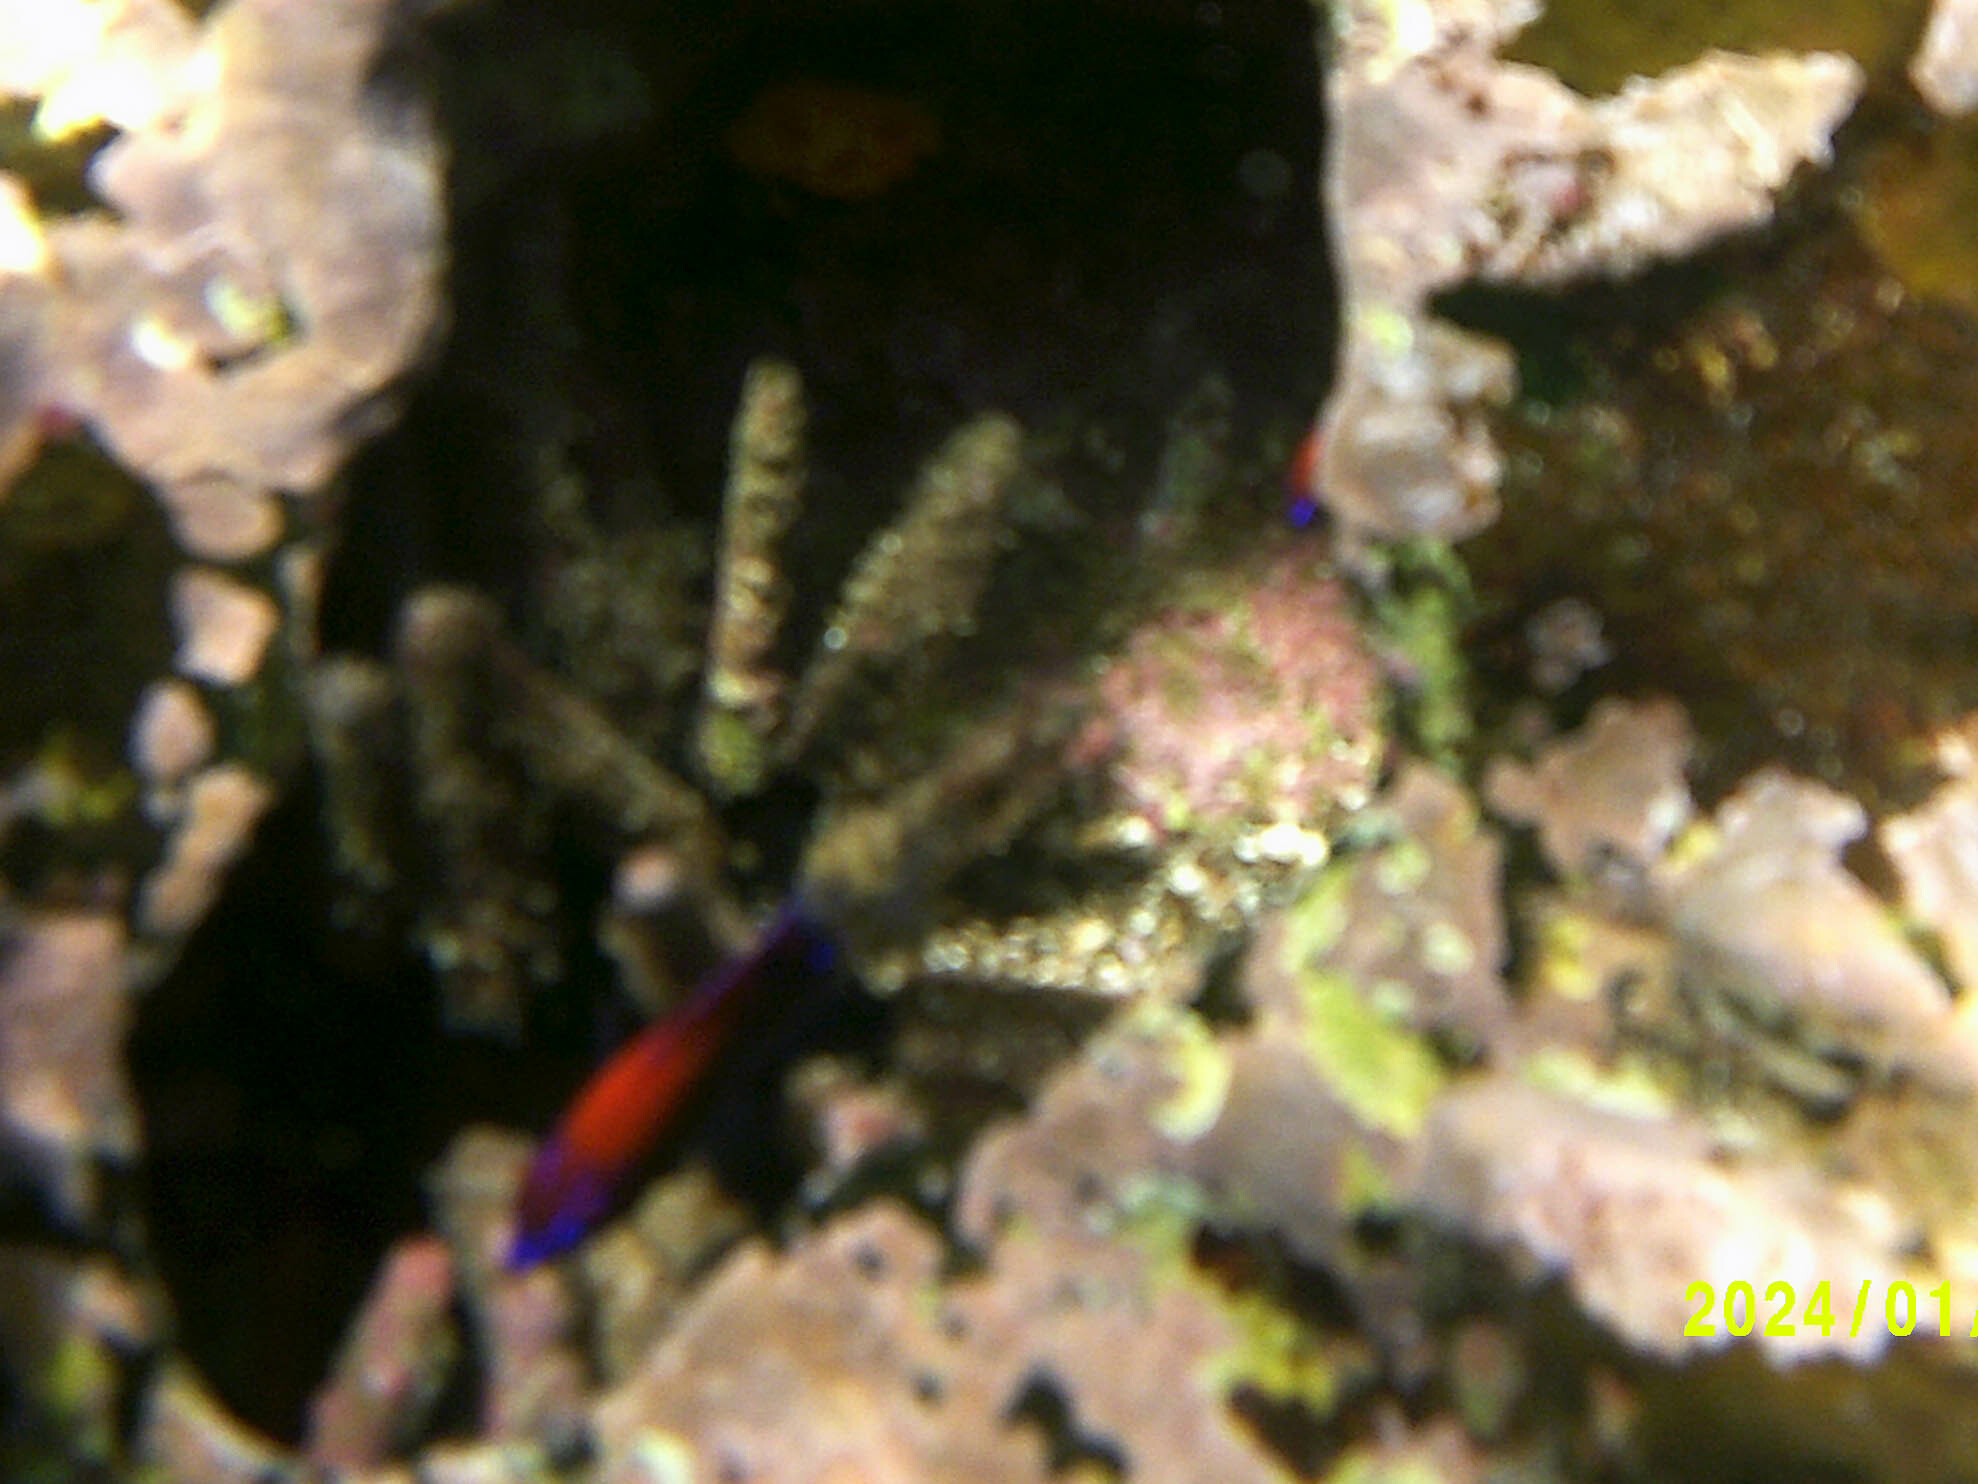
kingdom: Animalia
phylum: Chordata
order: Perciformes
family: Pomacentridae
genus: Stegastes
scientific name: Stegastes beebei
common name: Galapagos ringtail damselfish
